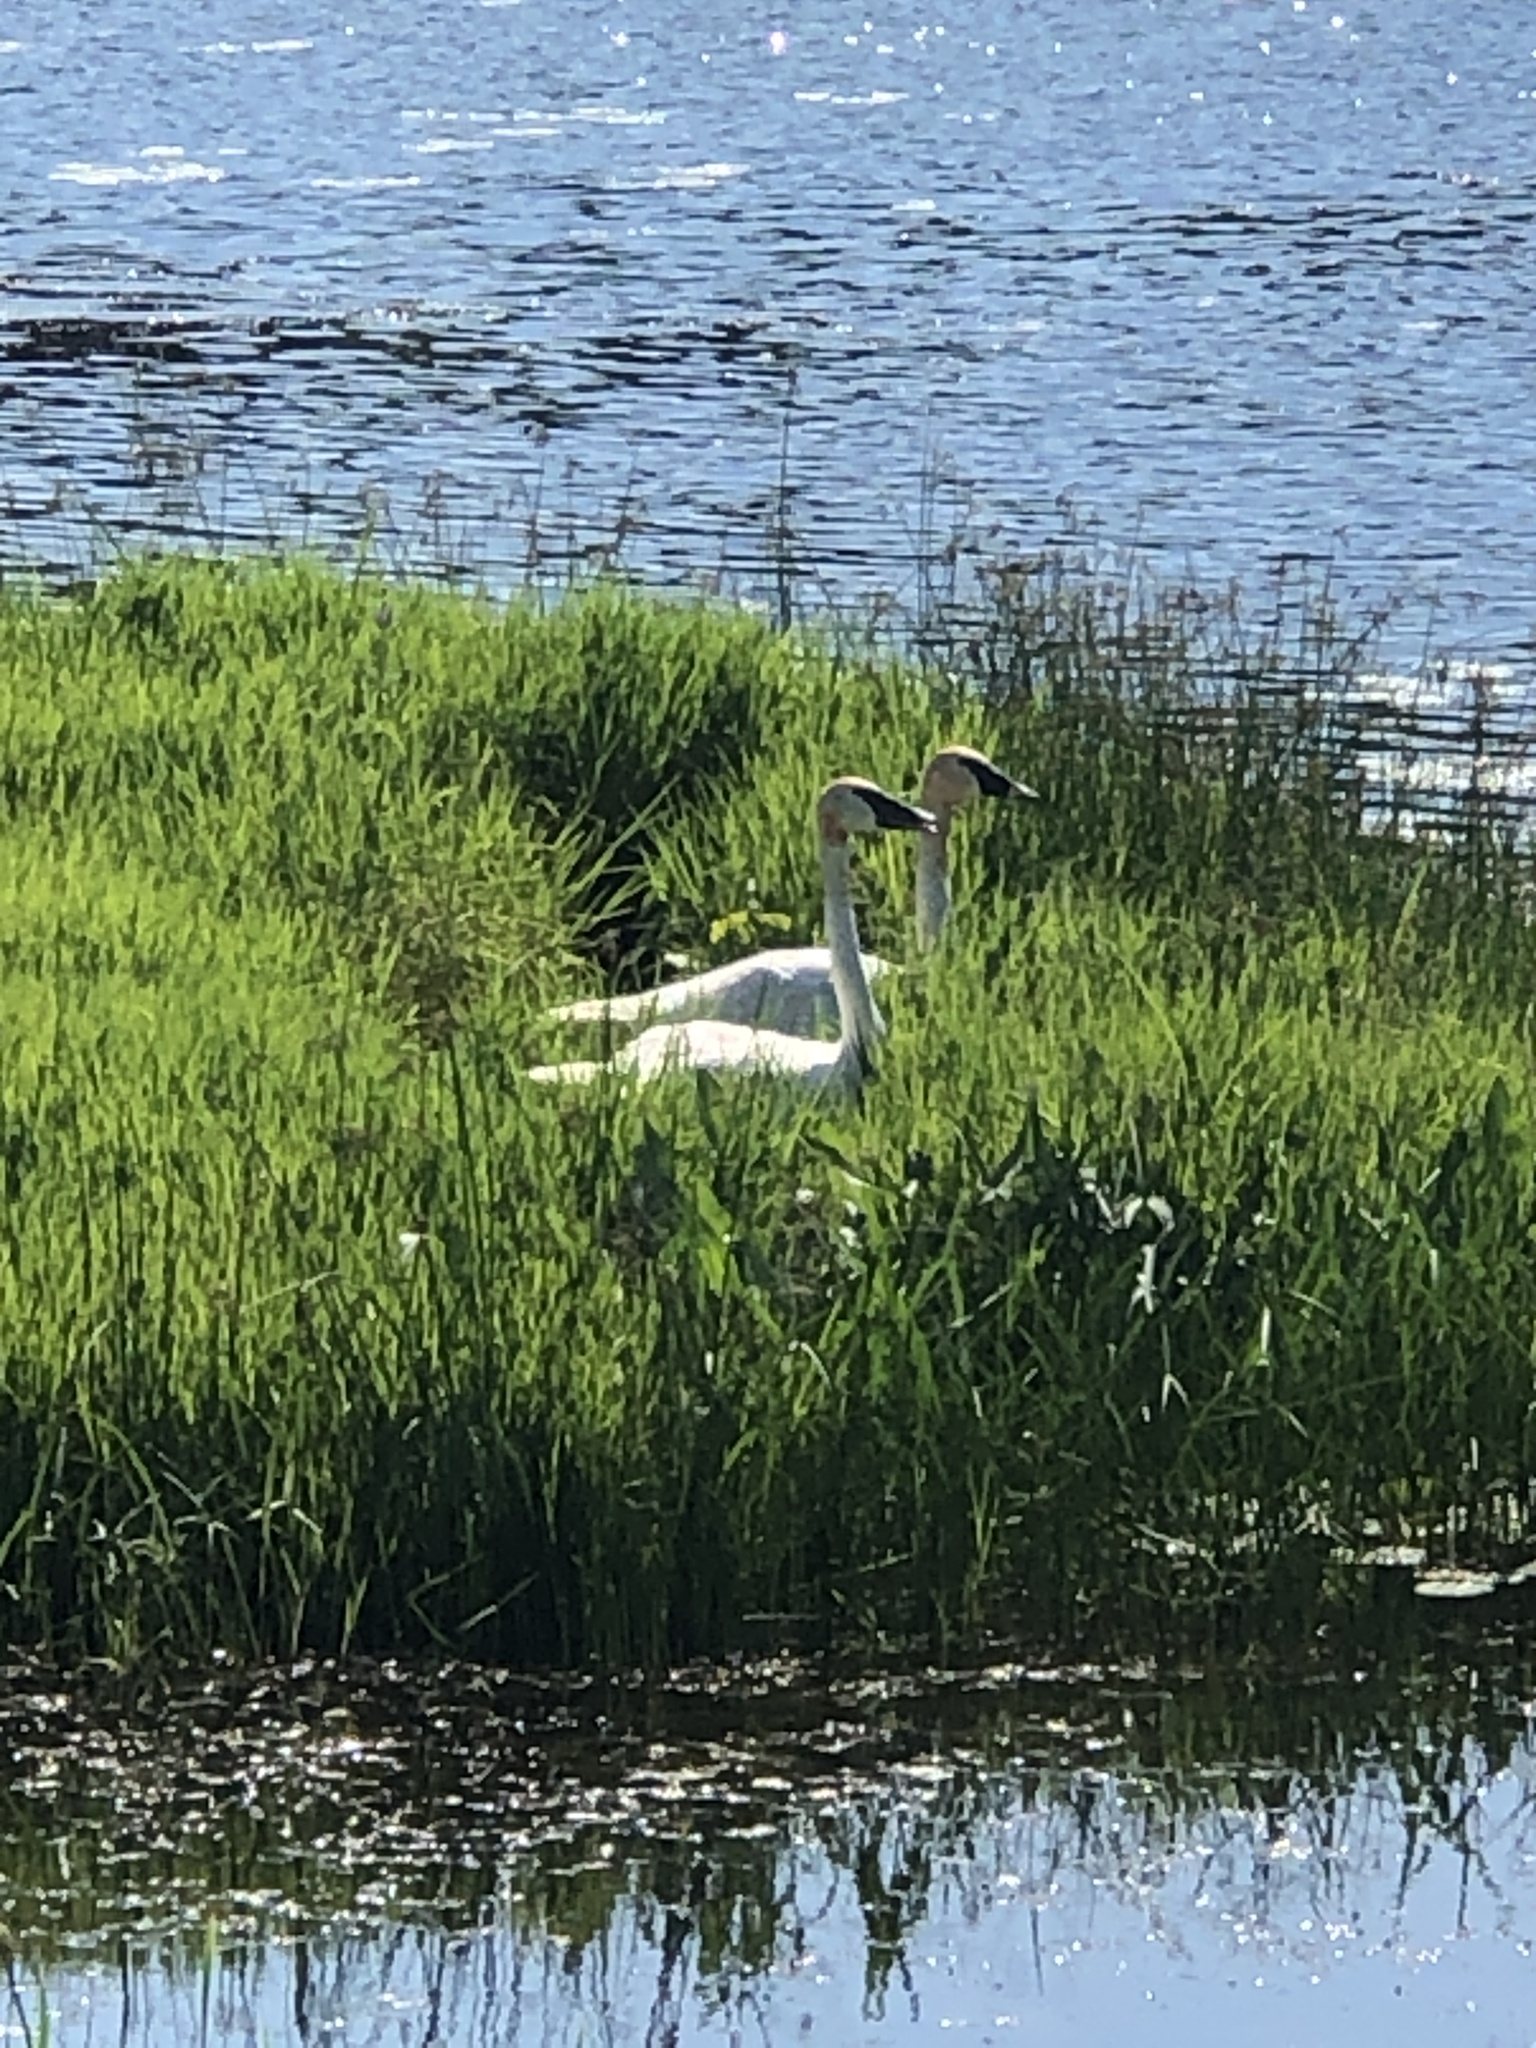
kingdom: Animalia
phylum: Chordata
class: Aves
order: Anseriformes
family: Anatidae
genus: Cygnus
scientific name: Cygnus buccinator
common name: Trumpeter swan
